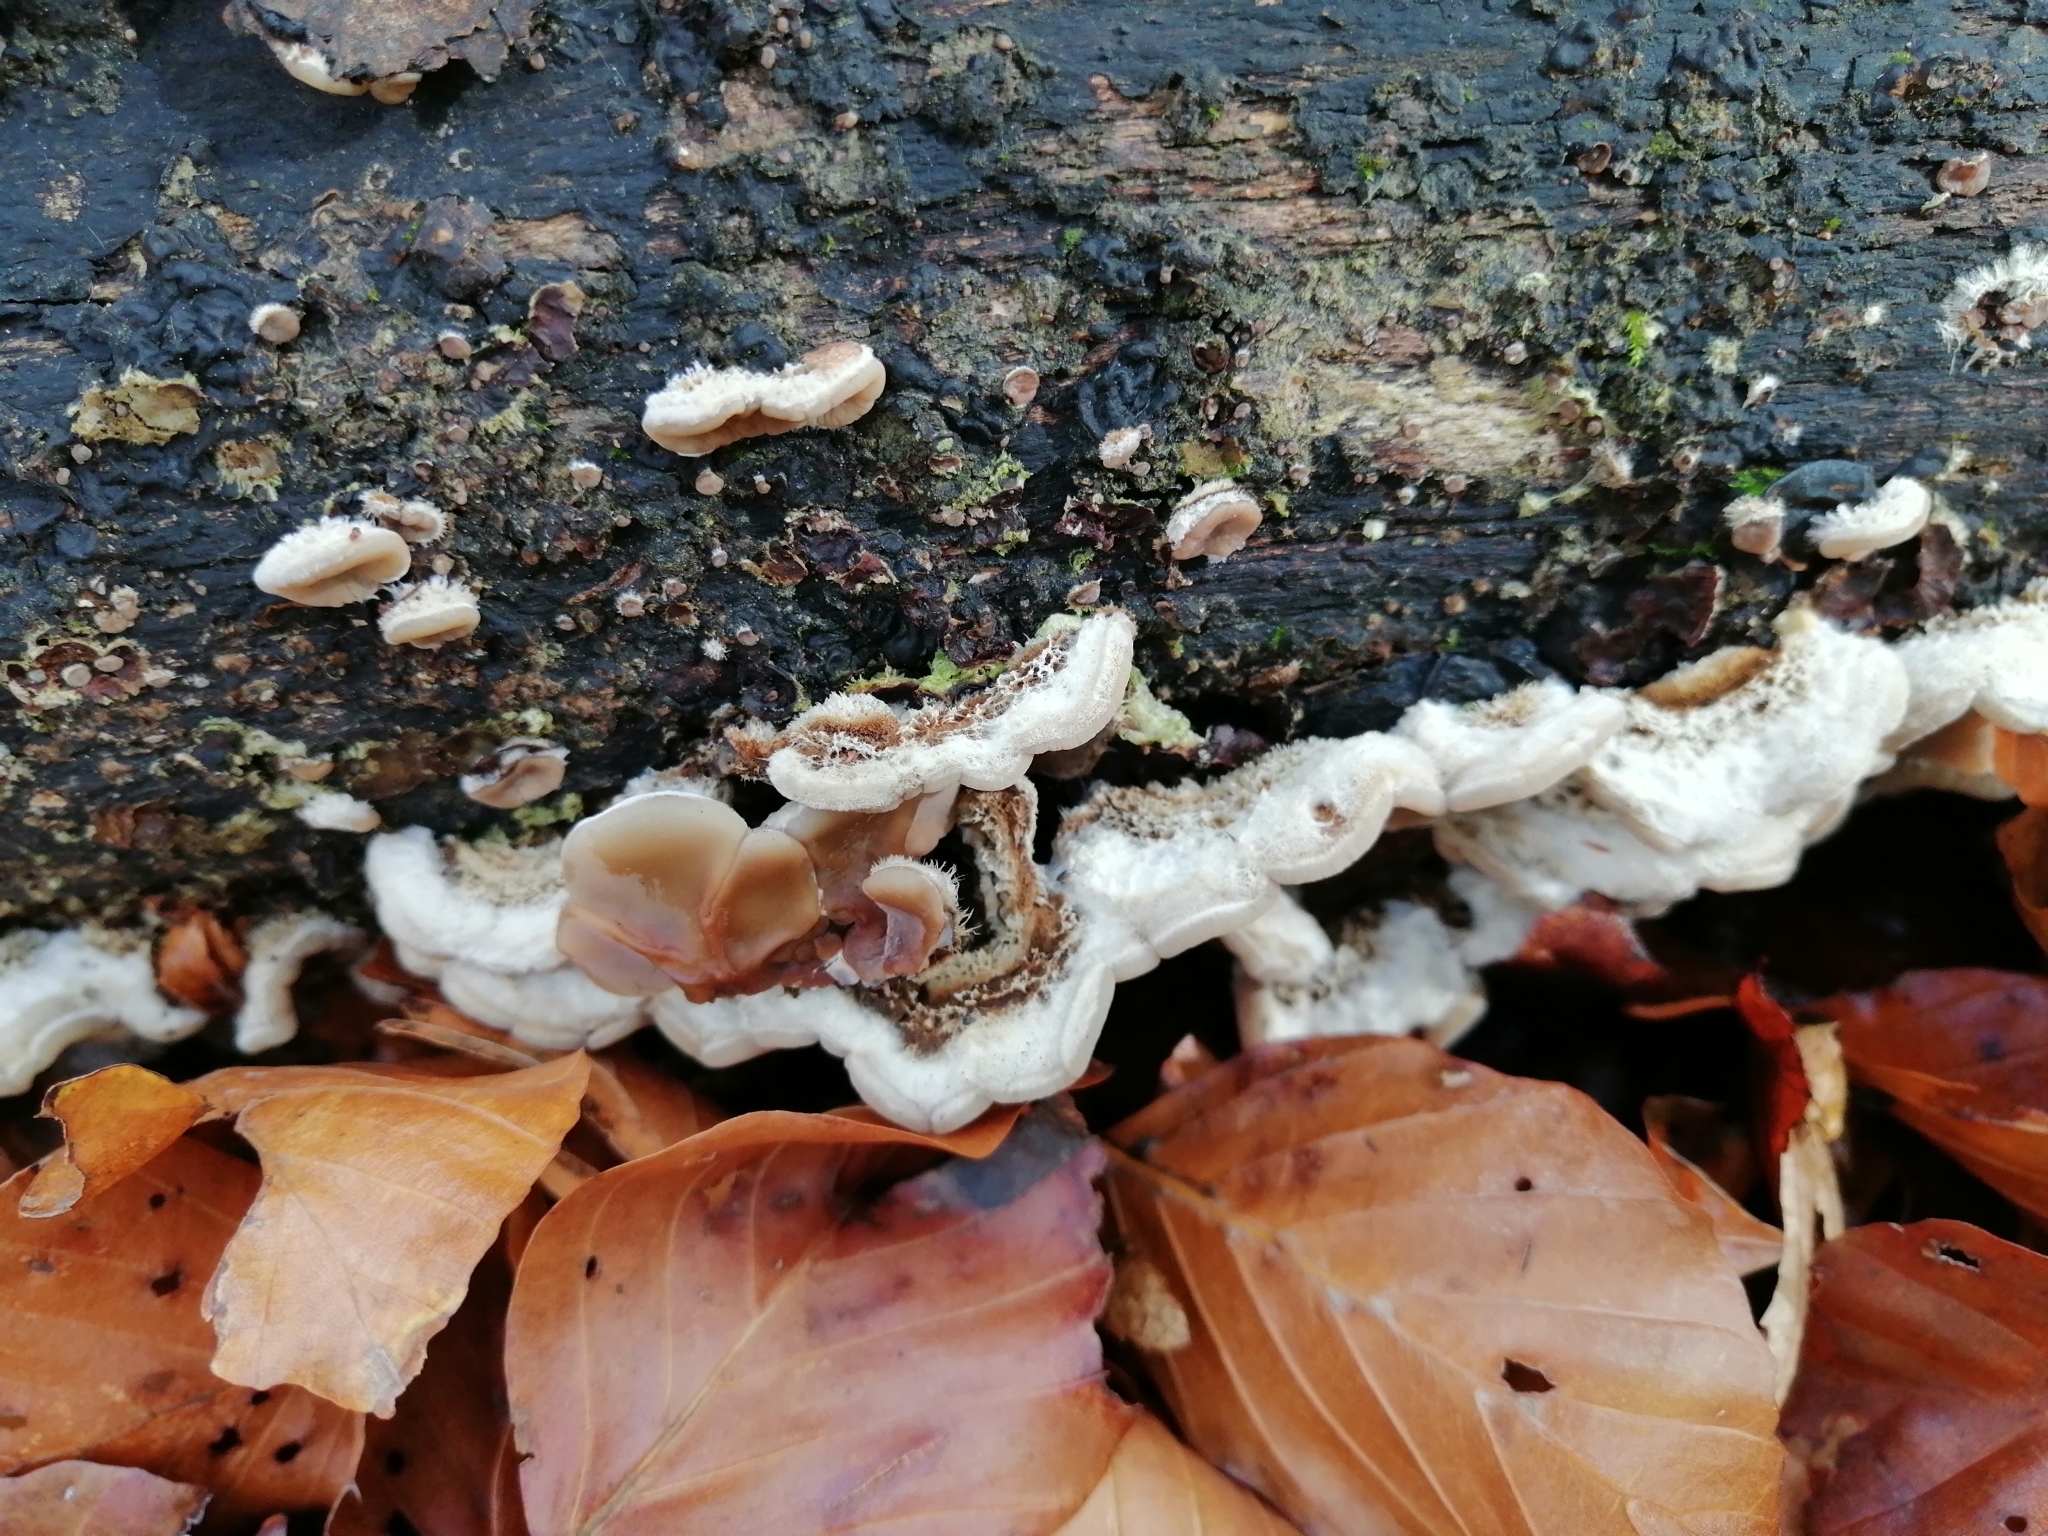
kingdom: Fungi
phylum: Basidiomycota
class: Agaricomycetes
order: Auriculariales
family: Auriculariaceae
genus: Auricularia
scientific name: Auricularia mesenterica
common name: Tripe fungus
